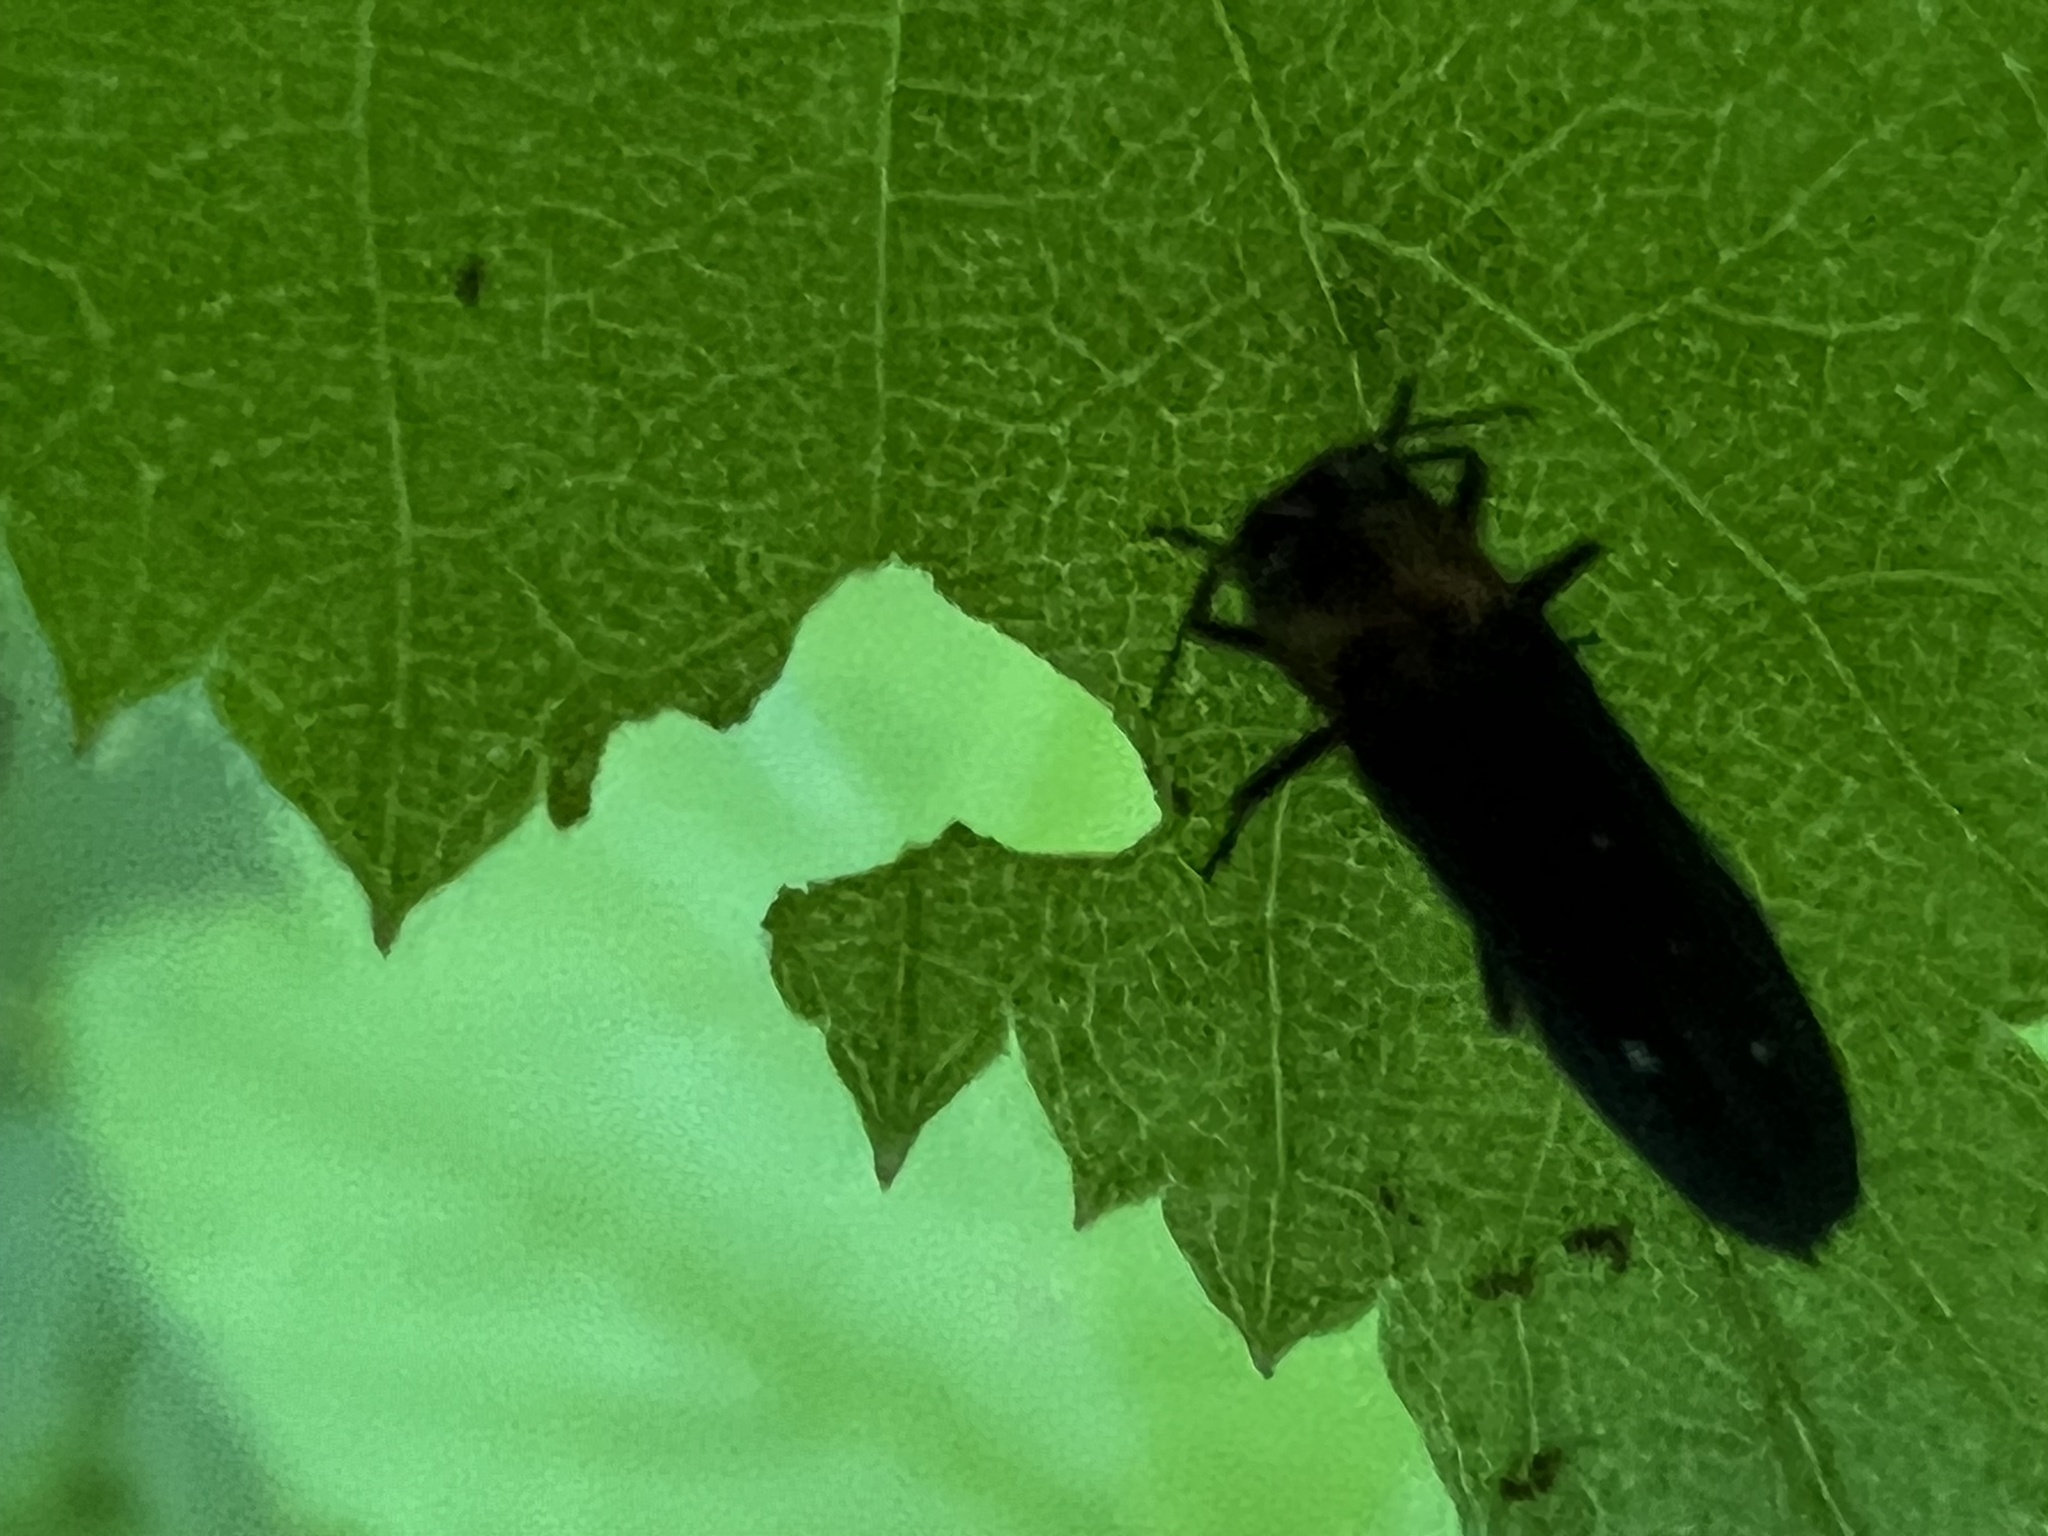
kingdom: Animalia
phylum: Arthropoda
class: Insecta
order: Coleoptera
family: Buprestidae
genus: Agrilus
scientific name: Agrilus ruficollis
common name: Red-necked cane borer beetle
